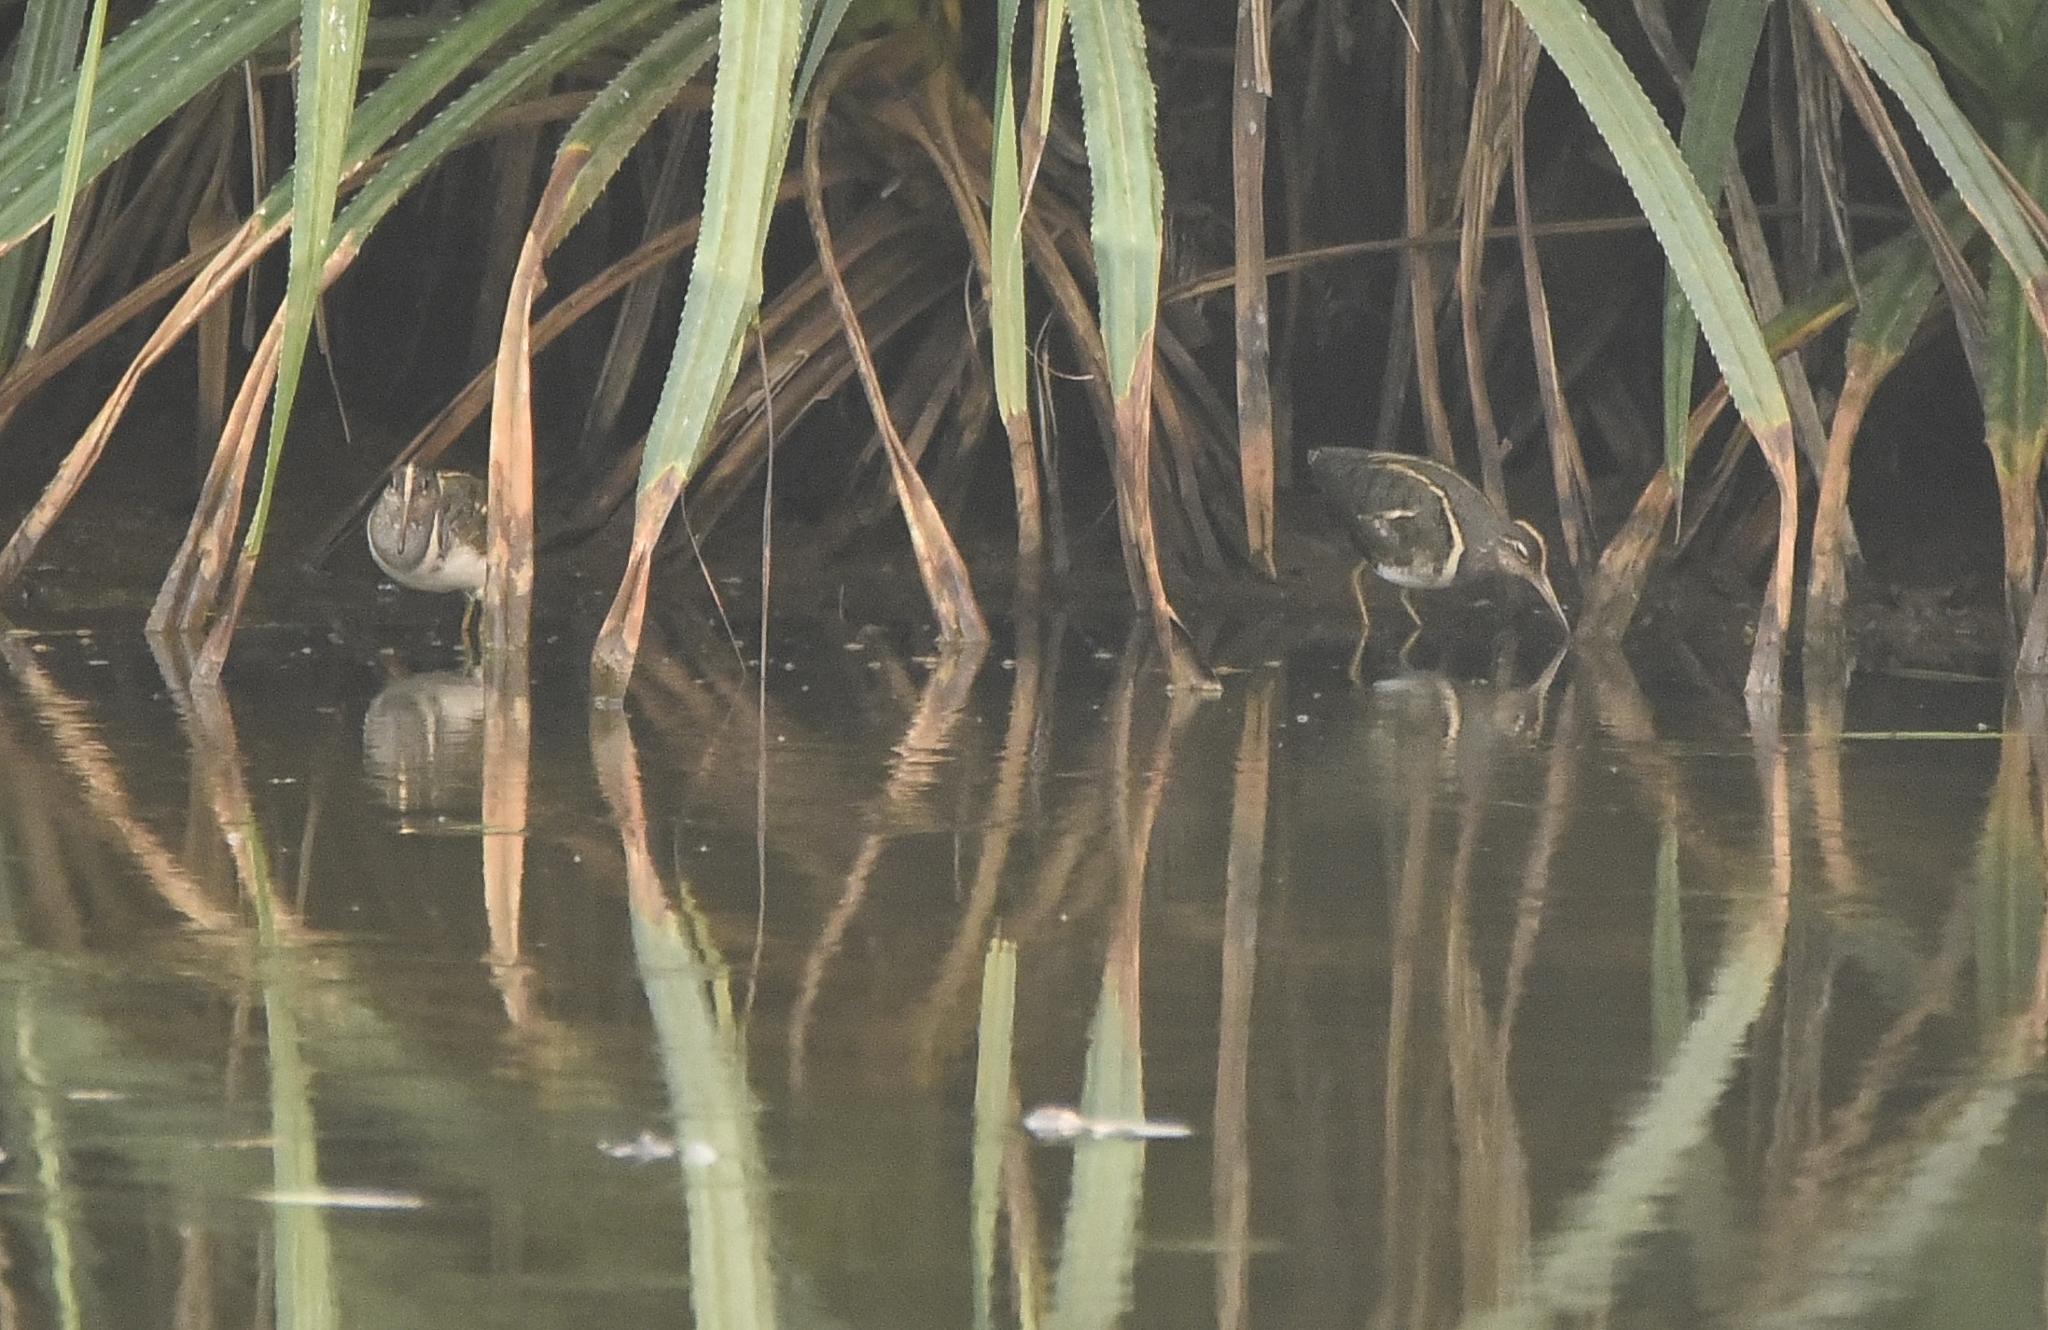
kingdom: Animalia
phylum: Chordata
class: Aves
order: Charadriiformes
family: Rostratulidae
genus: Rostratula
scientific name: Rostratula benghalensis
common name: Greater painted-snipe
